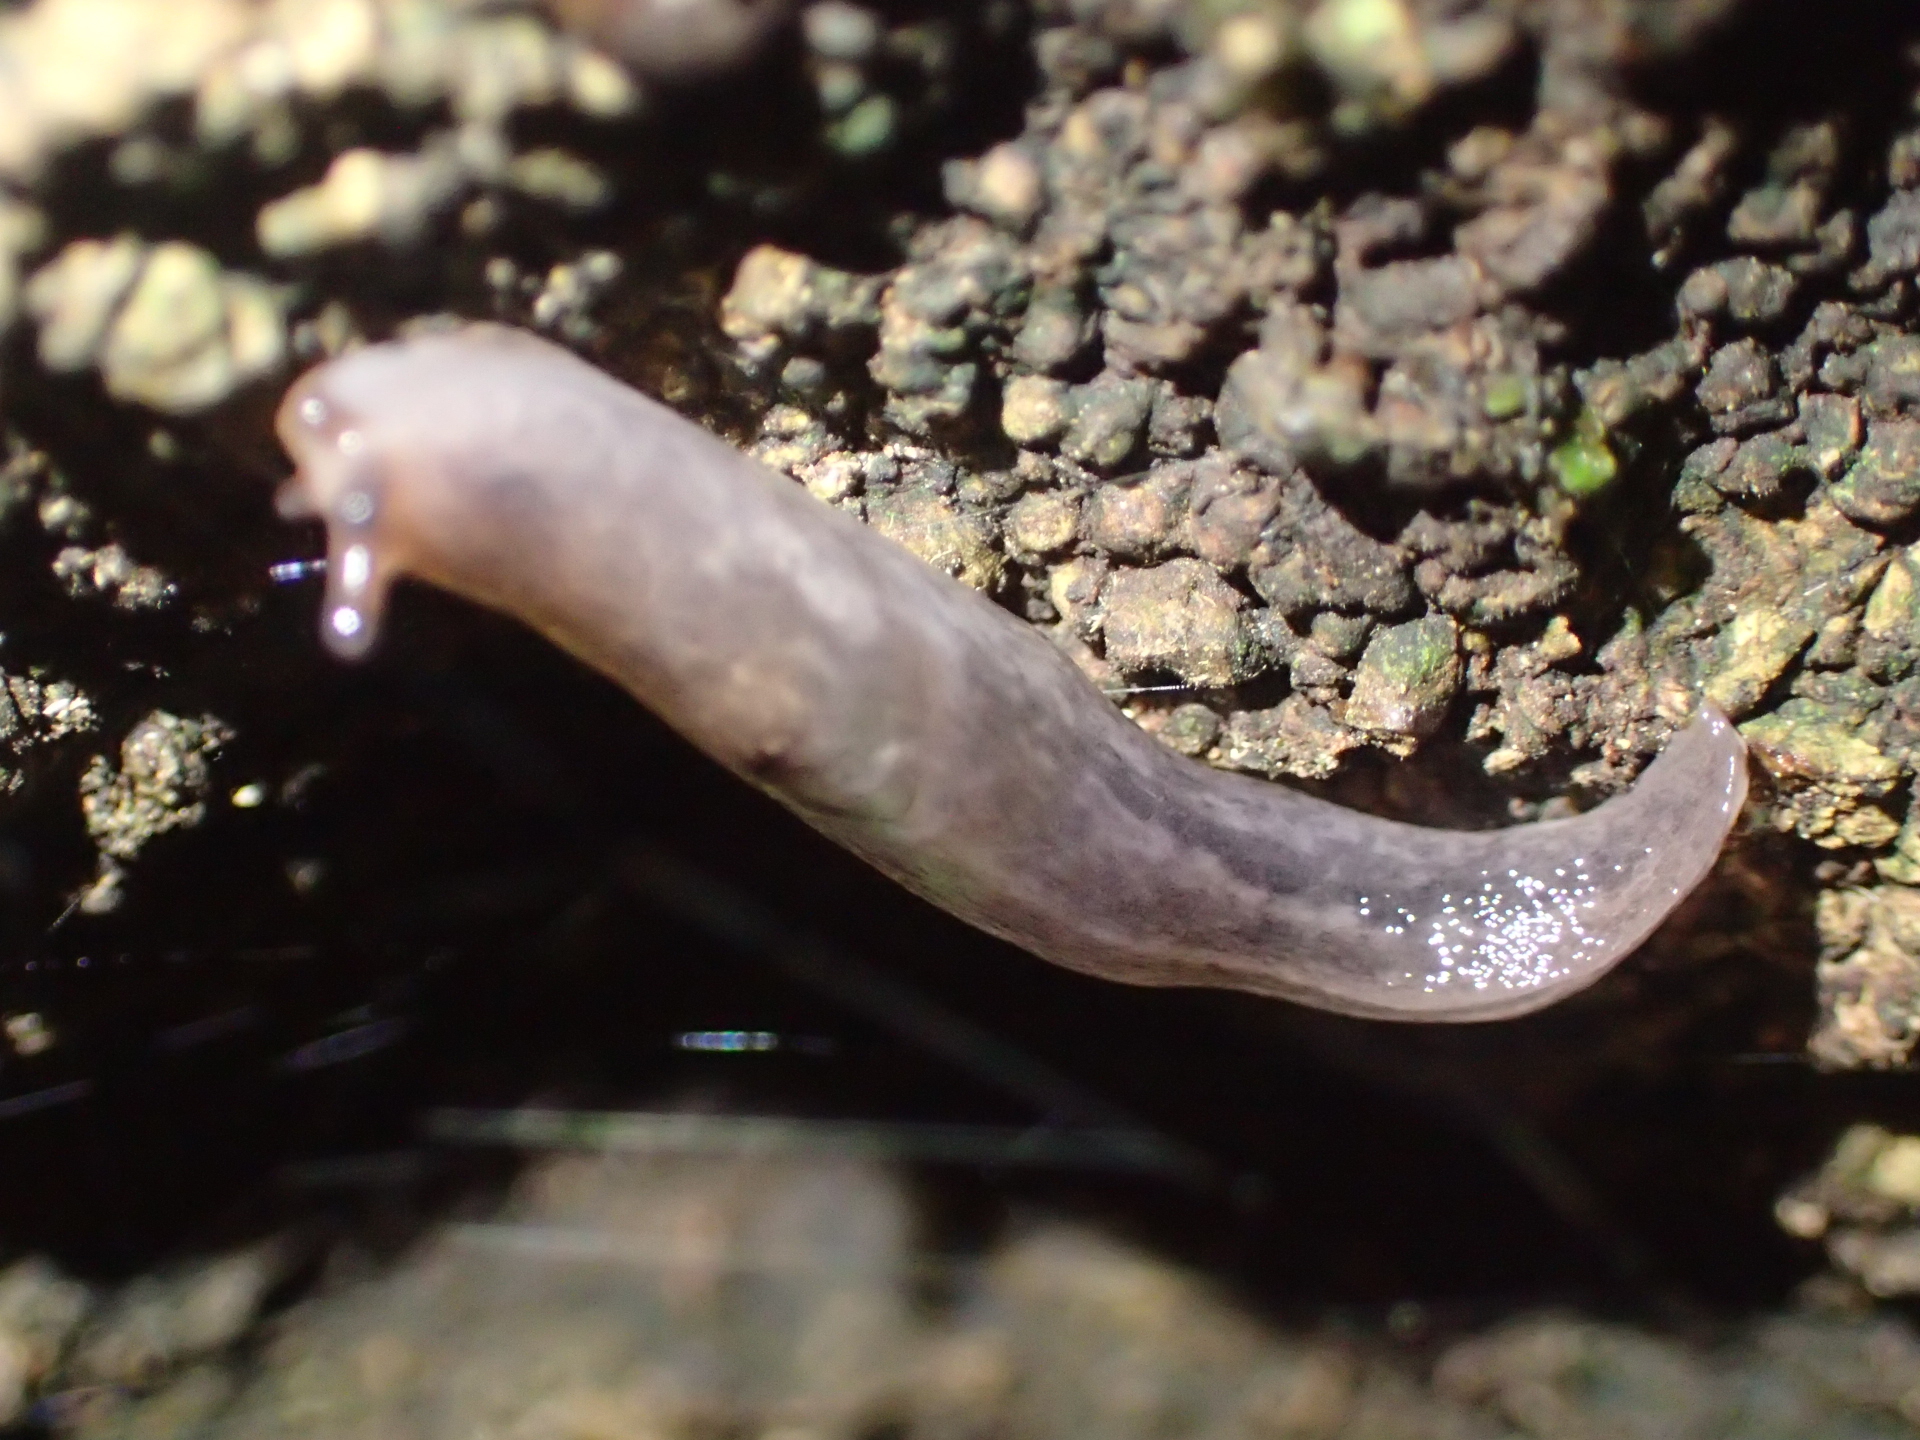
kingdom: Animalia
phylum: Mollusca
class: Gastropoda
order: Stylommatophora
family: Limacidae
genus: Limax
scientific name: Limax maximus
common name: Great grey slug
